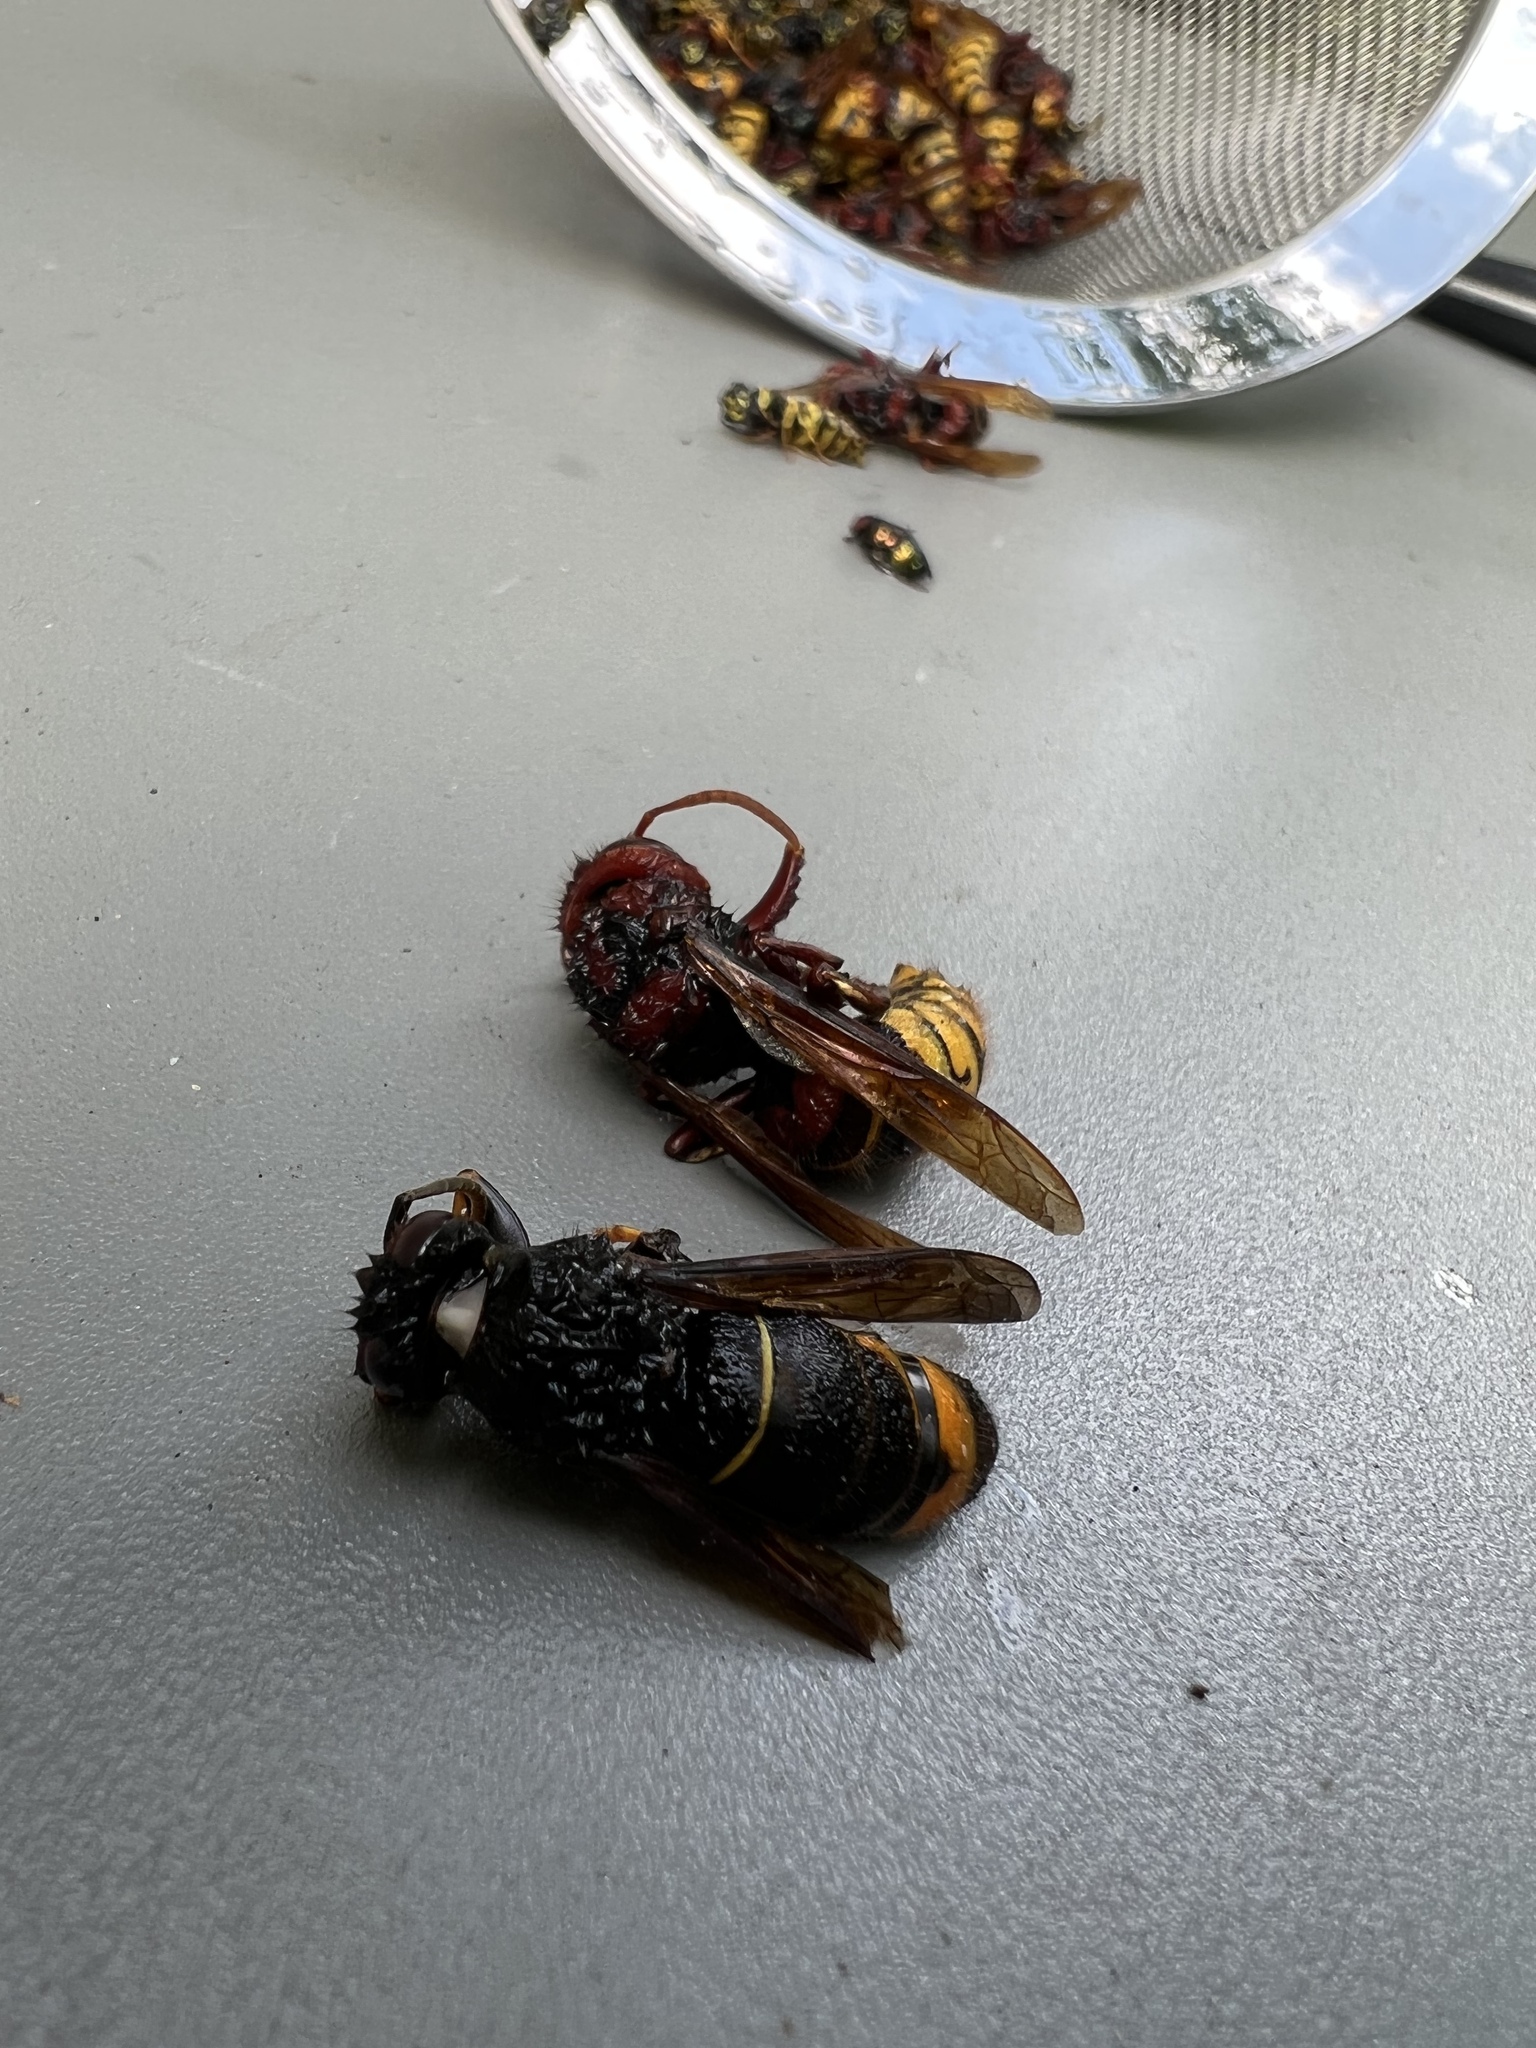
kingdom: Animalia
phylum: Arthropoda
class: Insecta
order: Hymenoptera
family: Vespidae
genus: Vespa
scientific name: Vespa velutina
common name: Asian hornet
